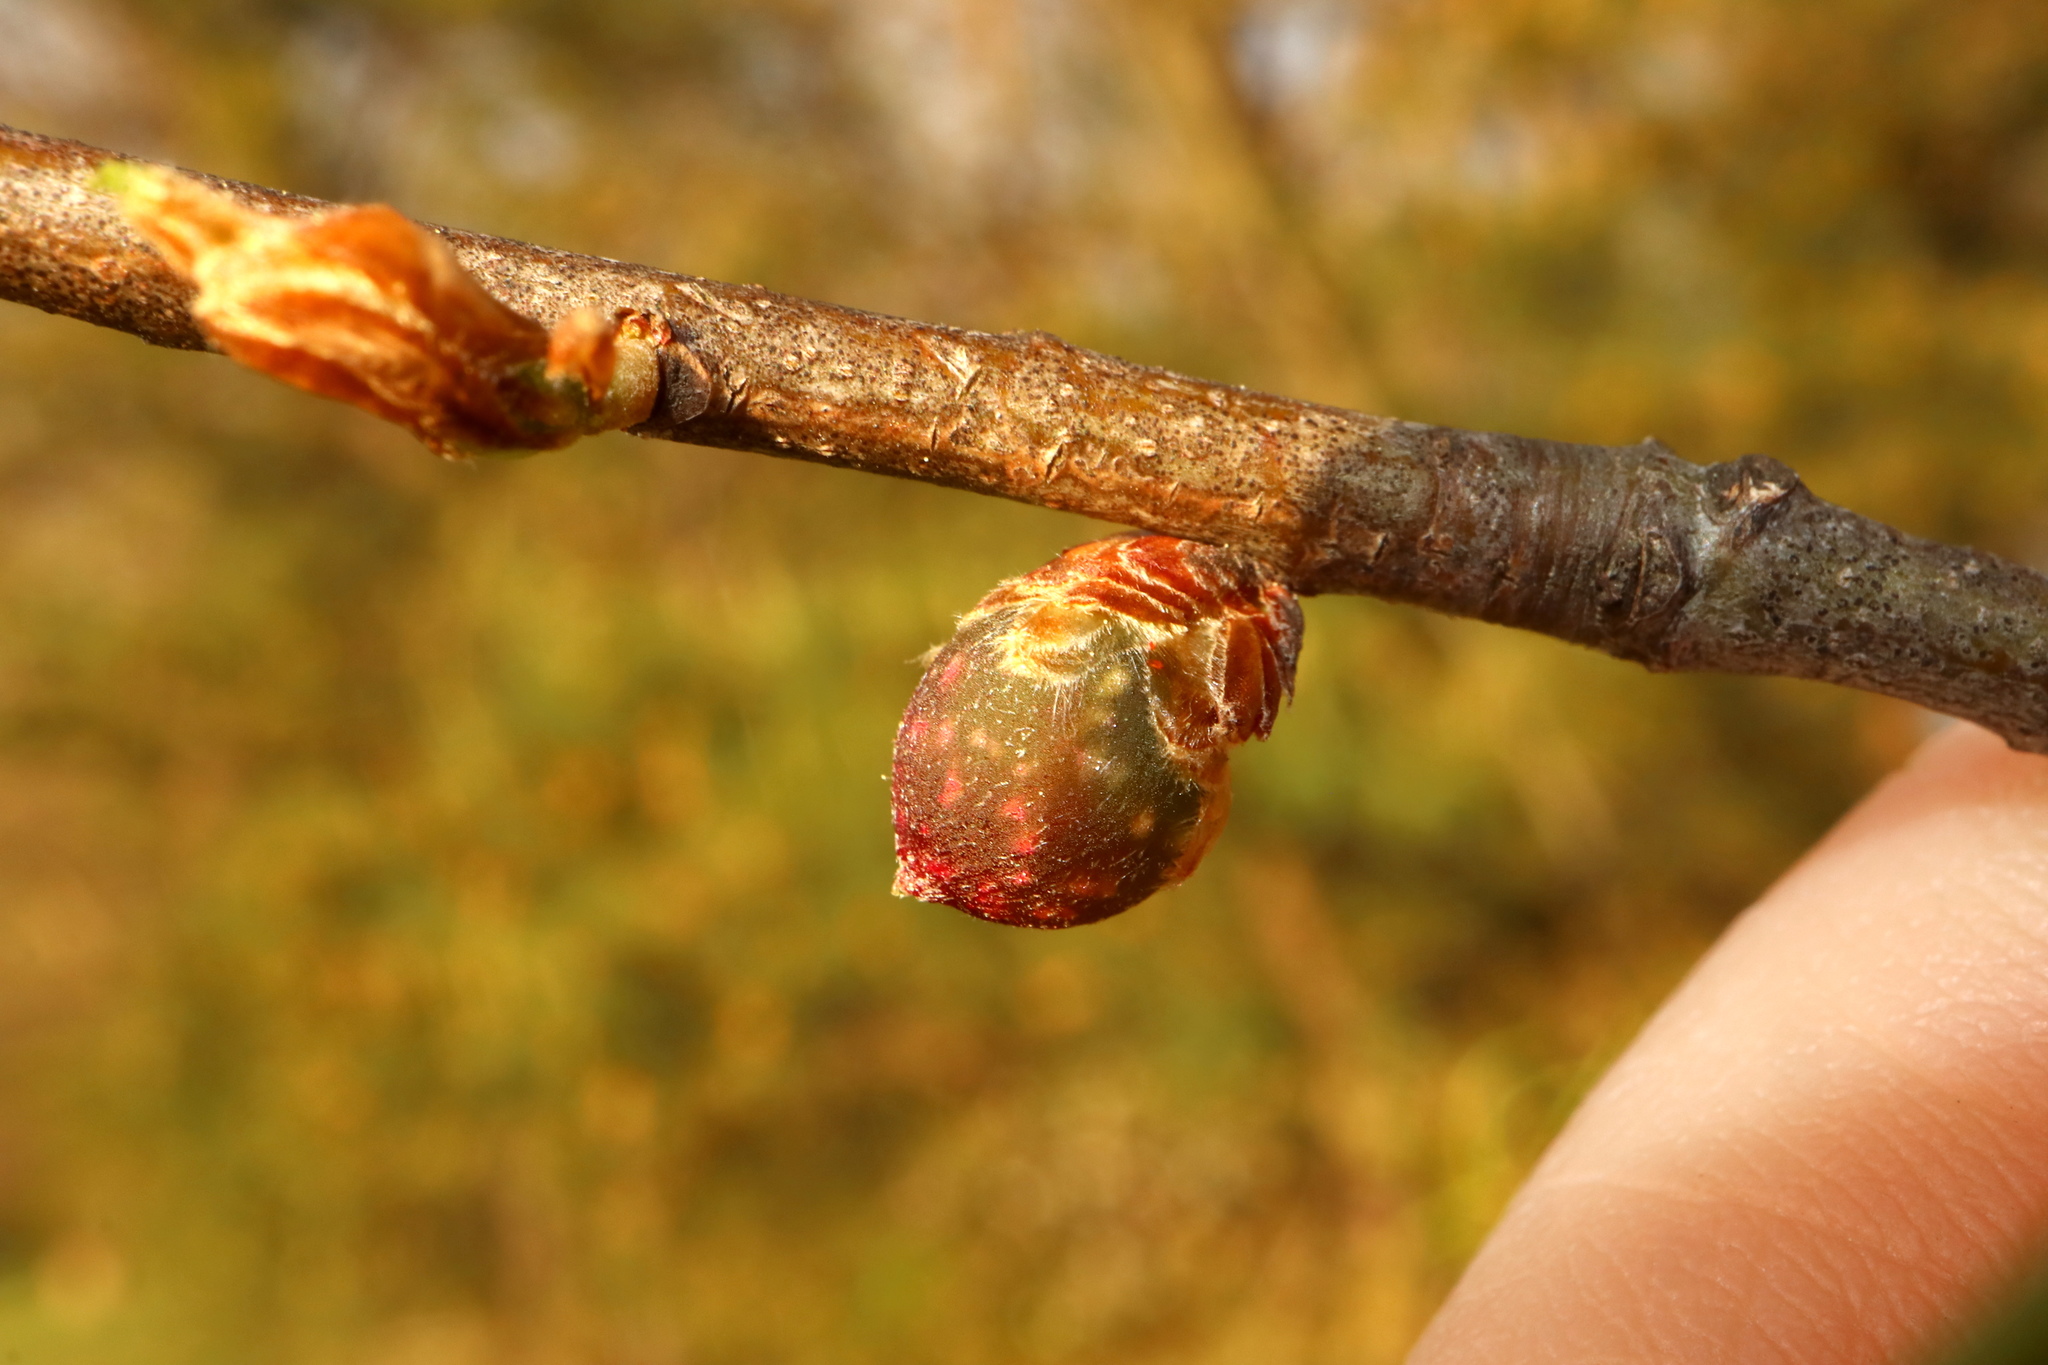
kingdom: Animalia
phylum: Arthropoda
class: Insecta
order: Hymenoptera
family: Cynipidae
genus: Dryocosmus
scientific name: Dryocosmus
